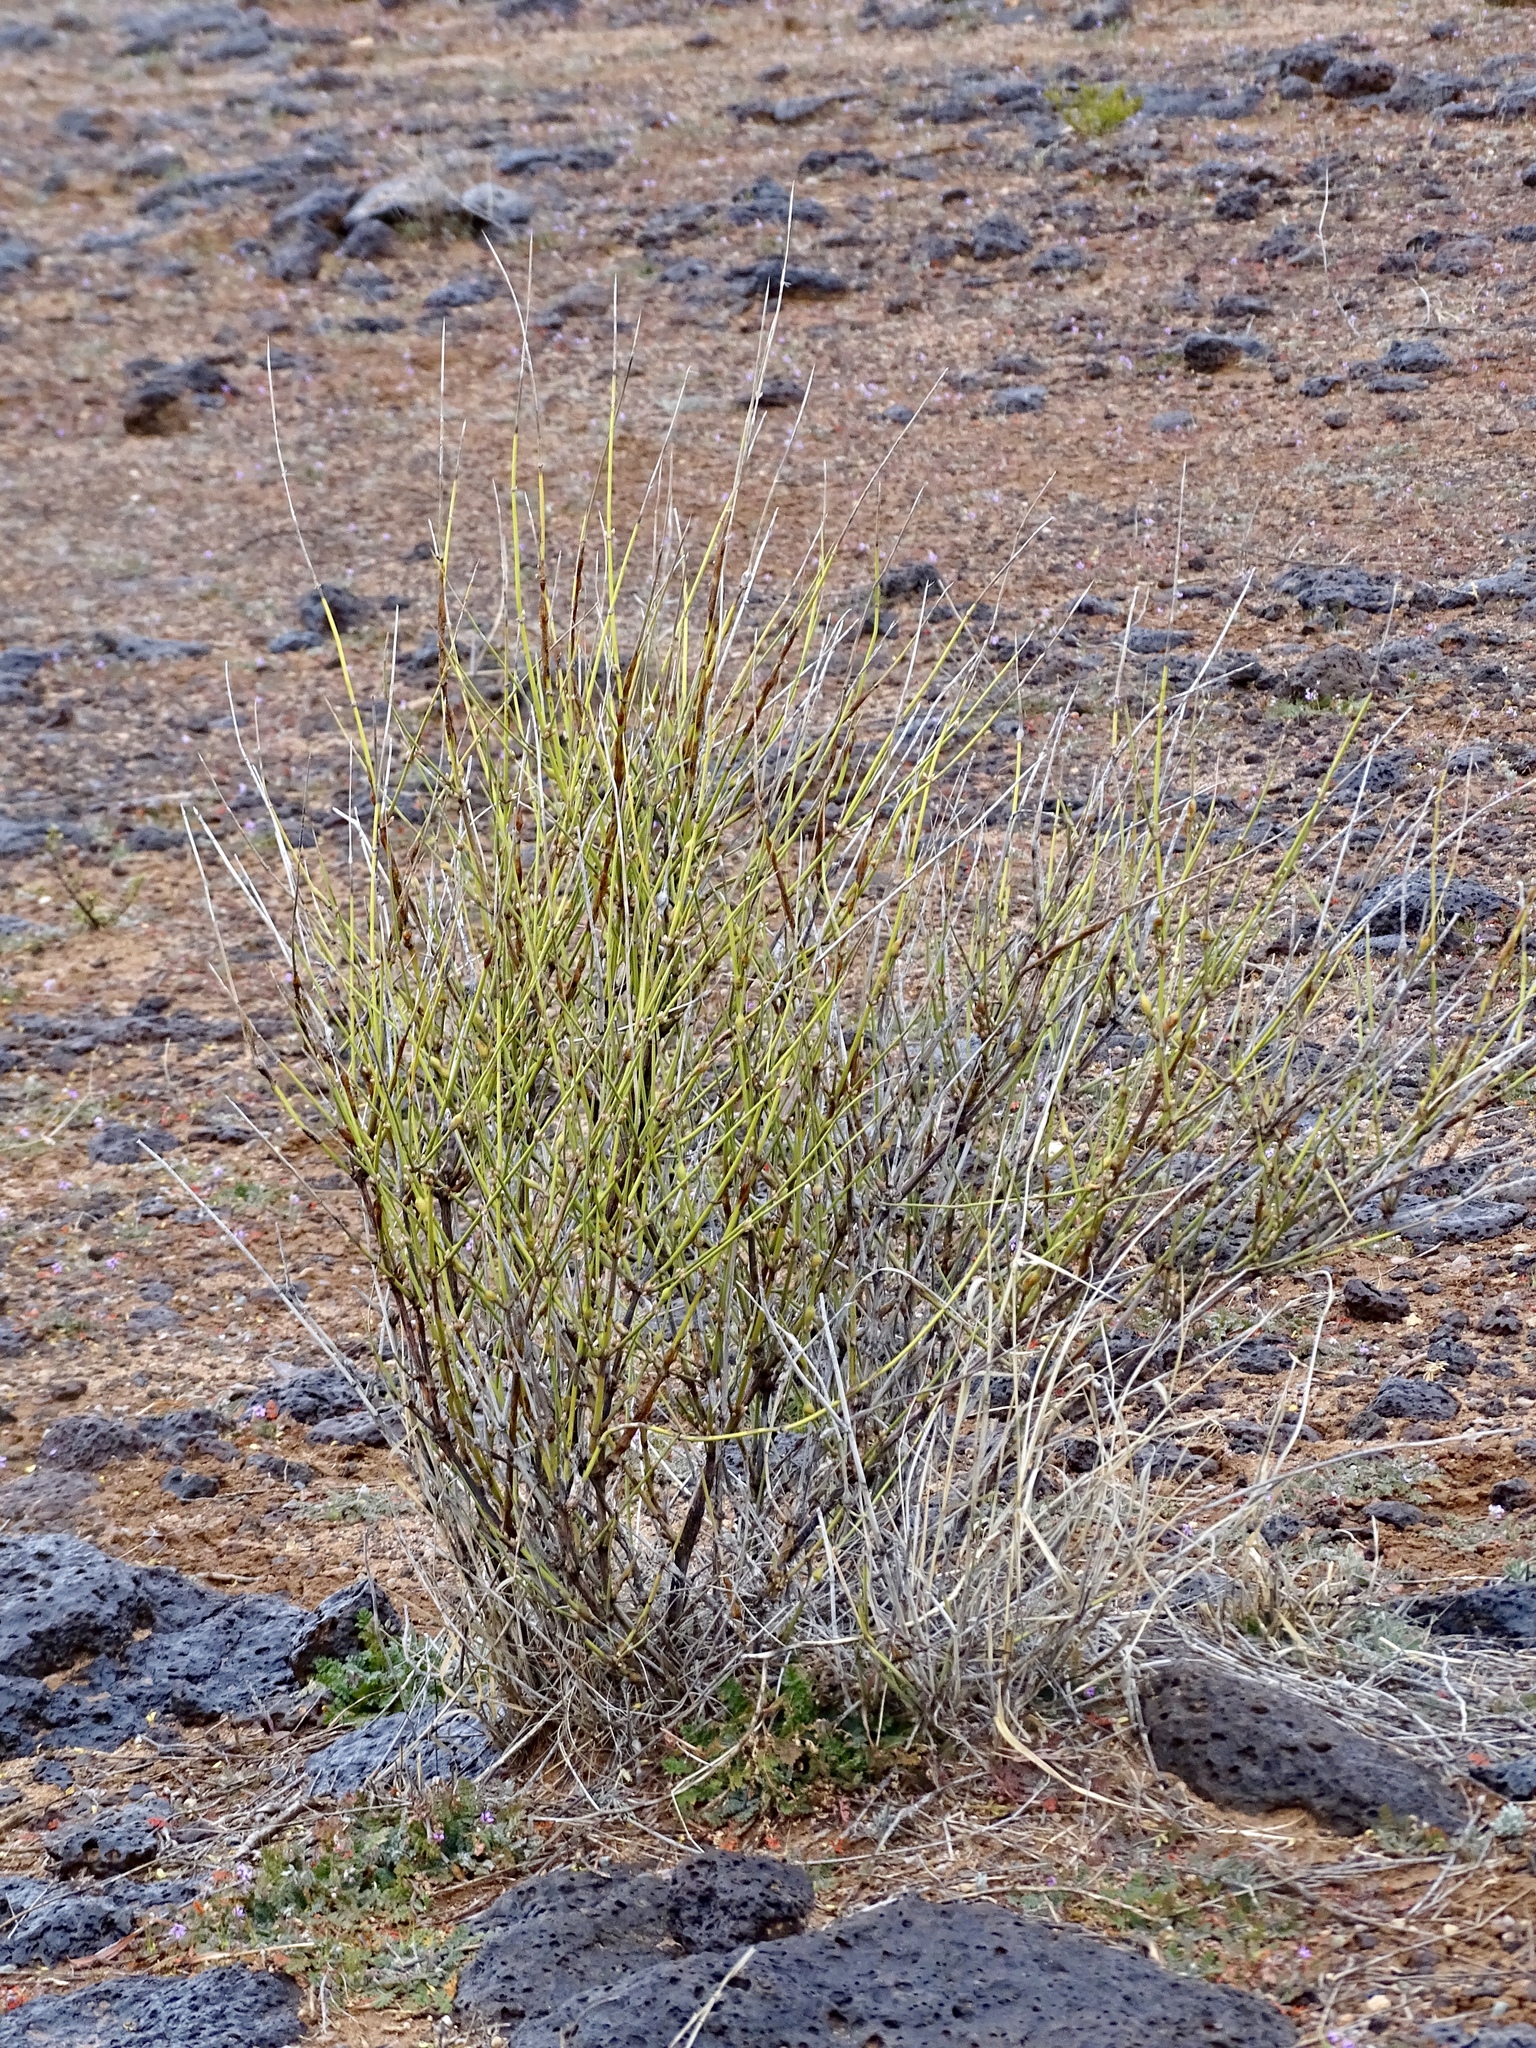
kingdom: Plantae
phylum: Tracheophyta
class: Gnetopsida
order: Ephedrales
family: Ephedraceae
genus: Ephedra
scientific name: Ephedra trifurca
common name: Mexican-tea
